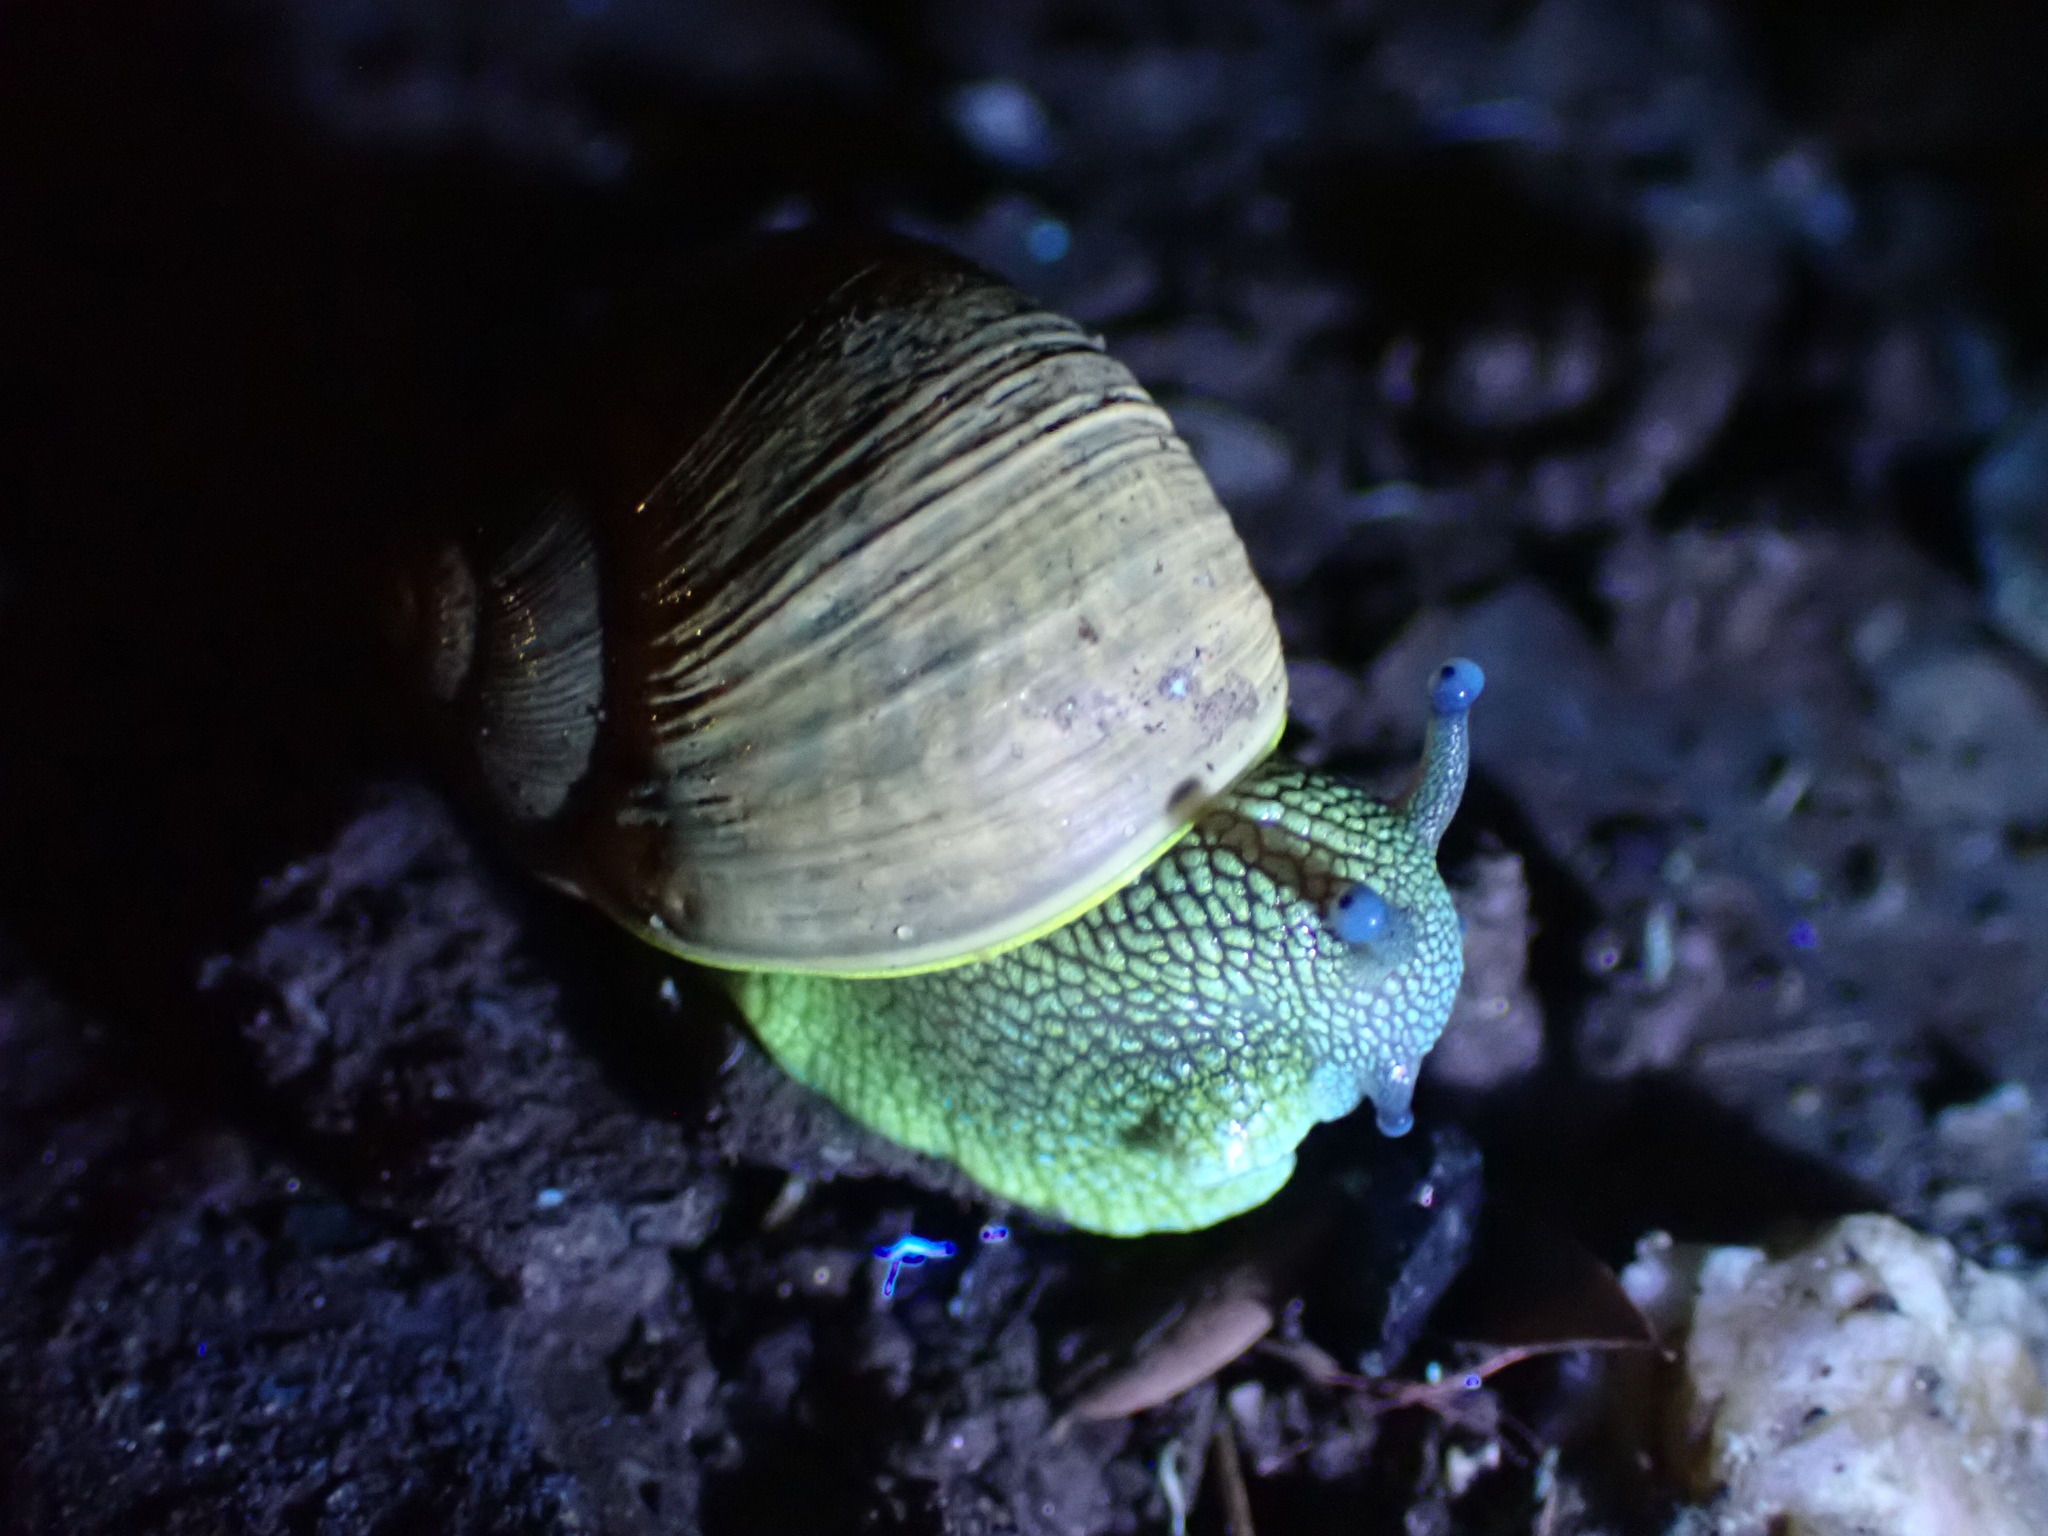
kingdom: Animalia
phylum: Mollusca
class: Gastropoda
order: Stylommatophora
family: Helicidae
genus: Cornu
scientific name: Cornu aspersum
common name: Brown garden snail
